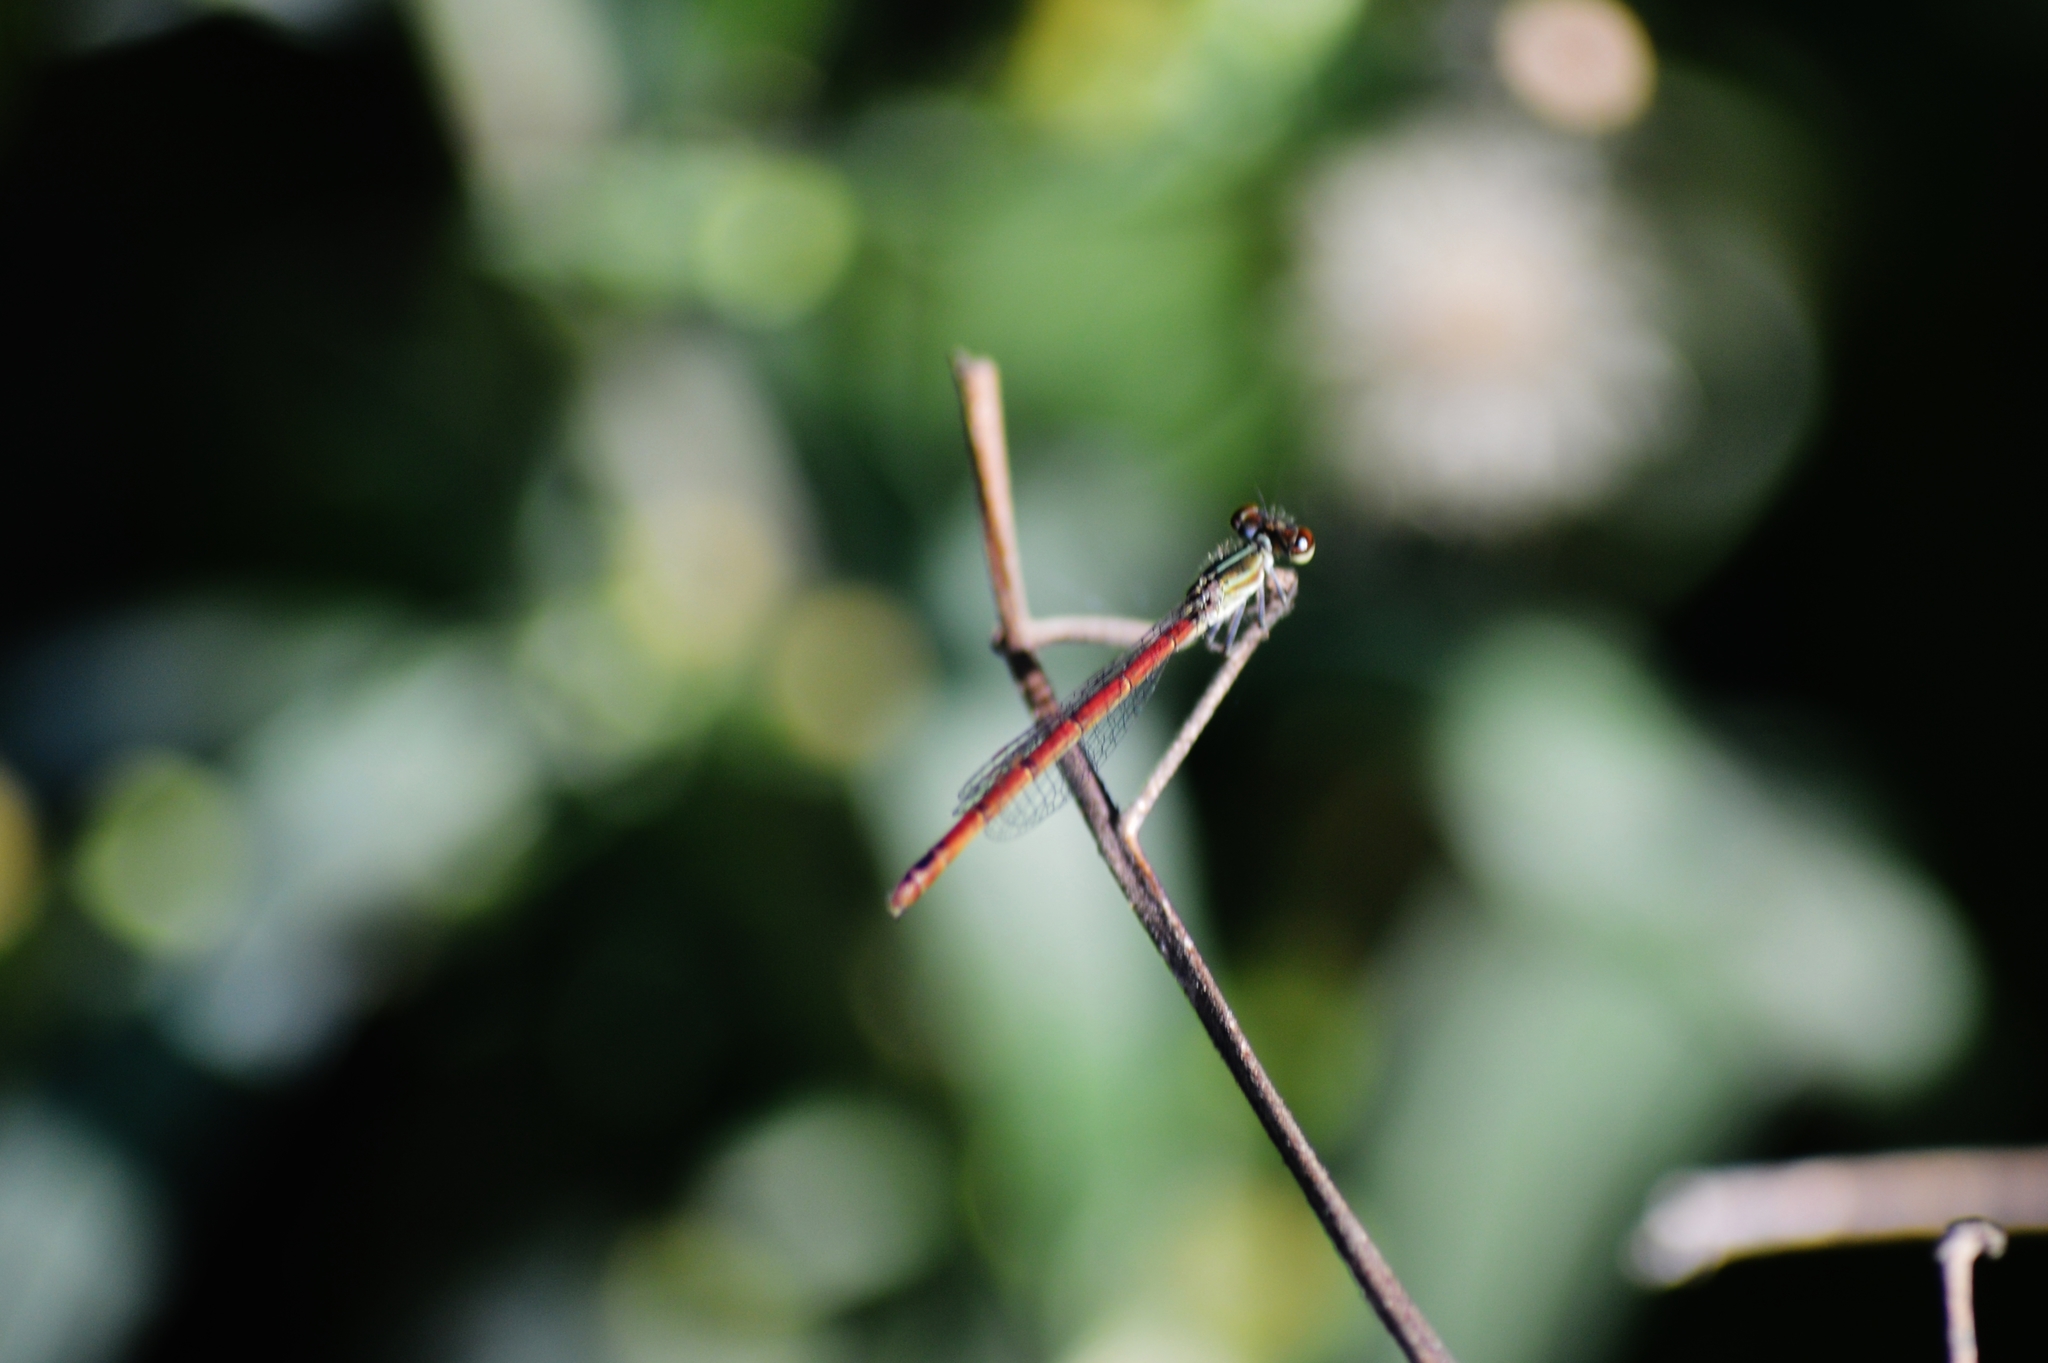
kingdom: Animalia
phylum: Arthropoda
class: Insecta
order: Odonata
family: Coenagrionidae
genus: Telebasis
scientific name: Telebasis filiola
